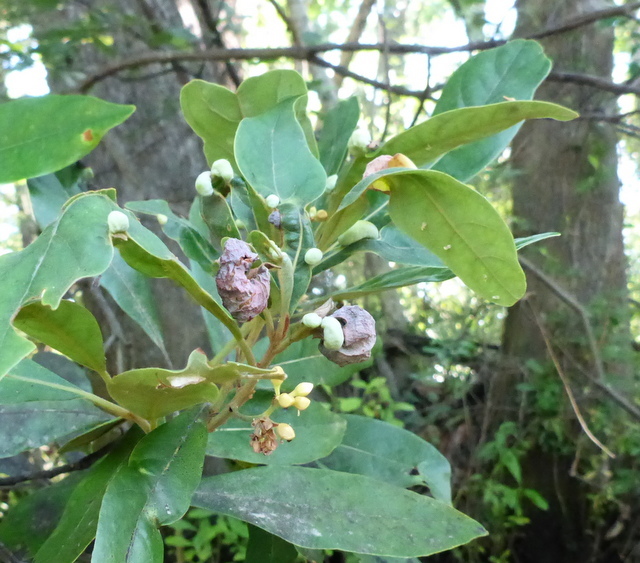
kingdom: Plantae
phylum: Tracheophyta
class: Magnoliopsida
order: Laurales
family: Lauraceae
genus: Persea
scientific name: Persea palustris
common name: Swampbay
